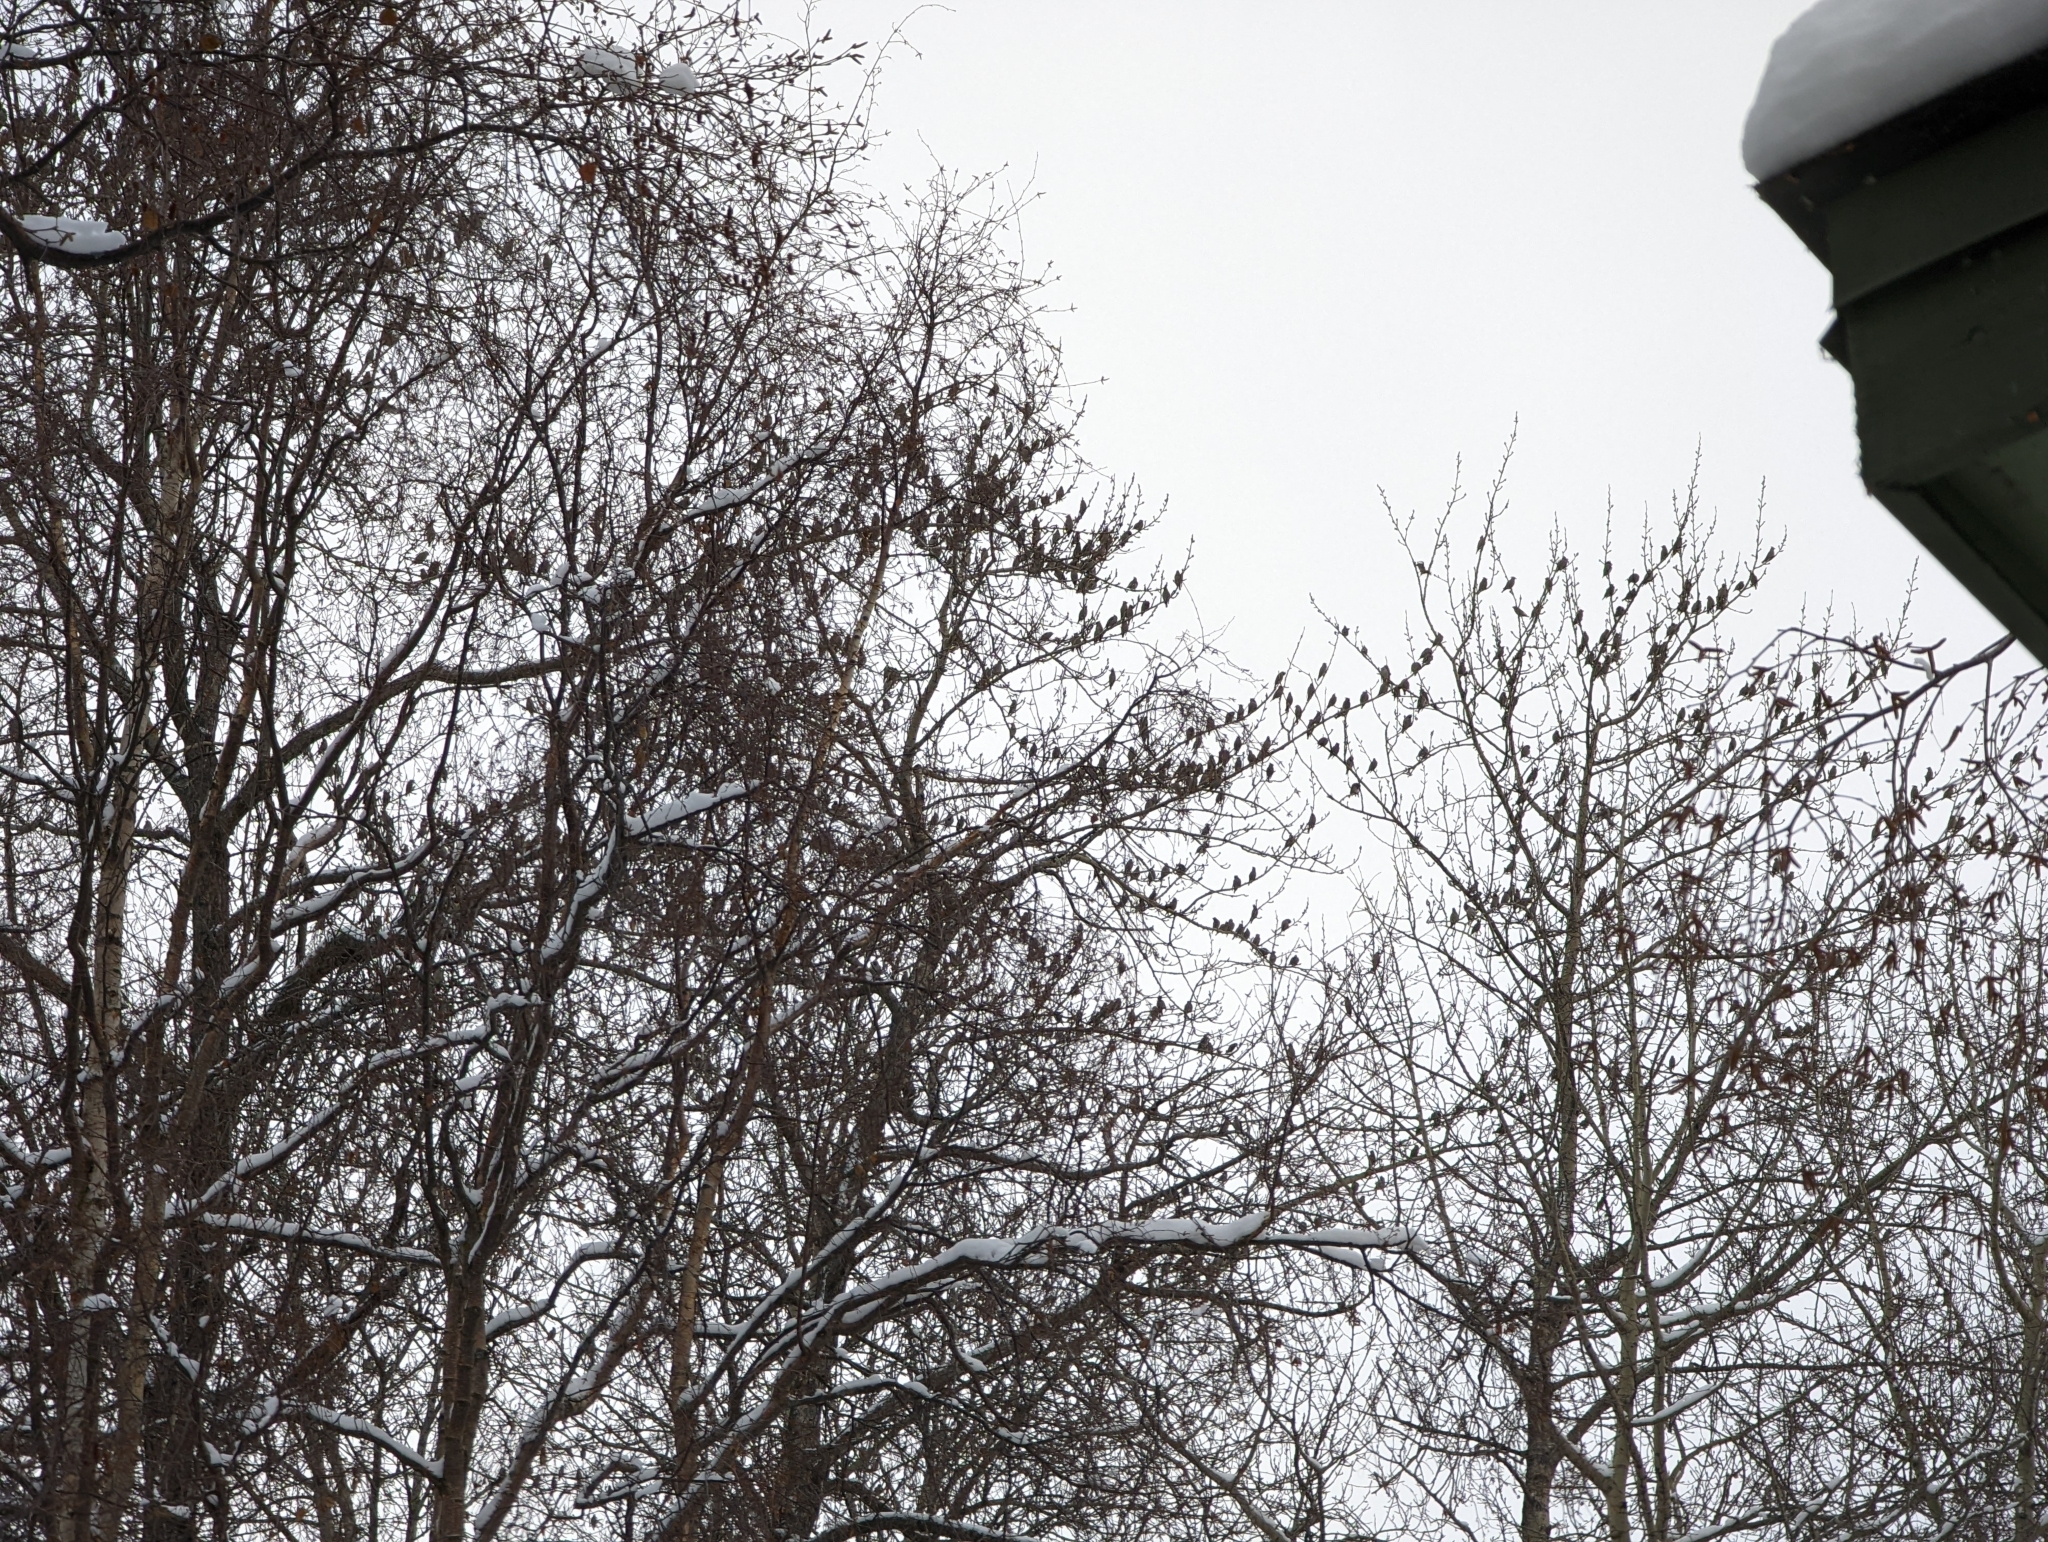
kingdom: Animalia
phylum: Chordata
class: Aves
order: Passeriformes
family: Bombycillidae
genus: Bombycilla
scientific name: Bombycilla garrulus
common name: Bohemian waxwing
